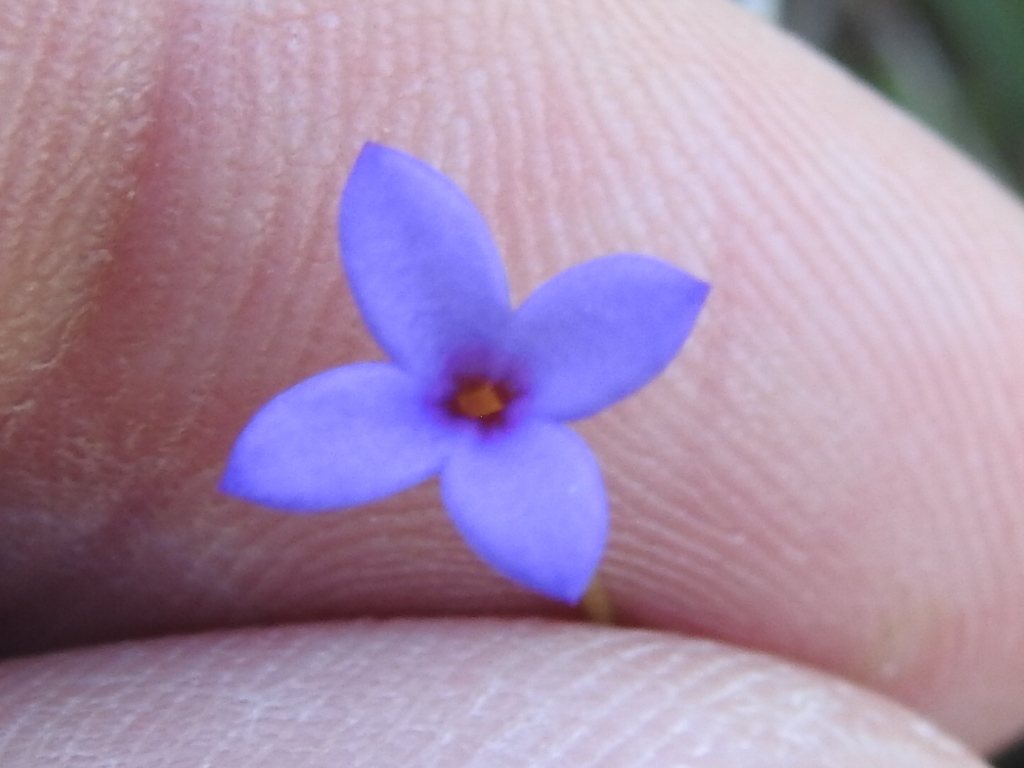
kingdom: Plantae
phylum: Tracheophyta
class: Magnoliopsida
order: Gentianales
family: Rubiaceae
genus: Houstonia
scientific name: Houstonia pusilla
